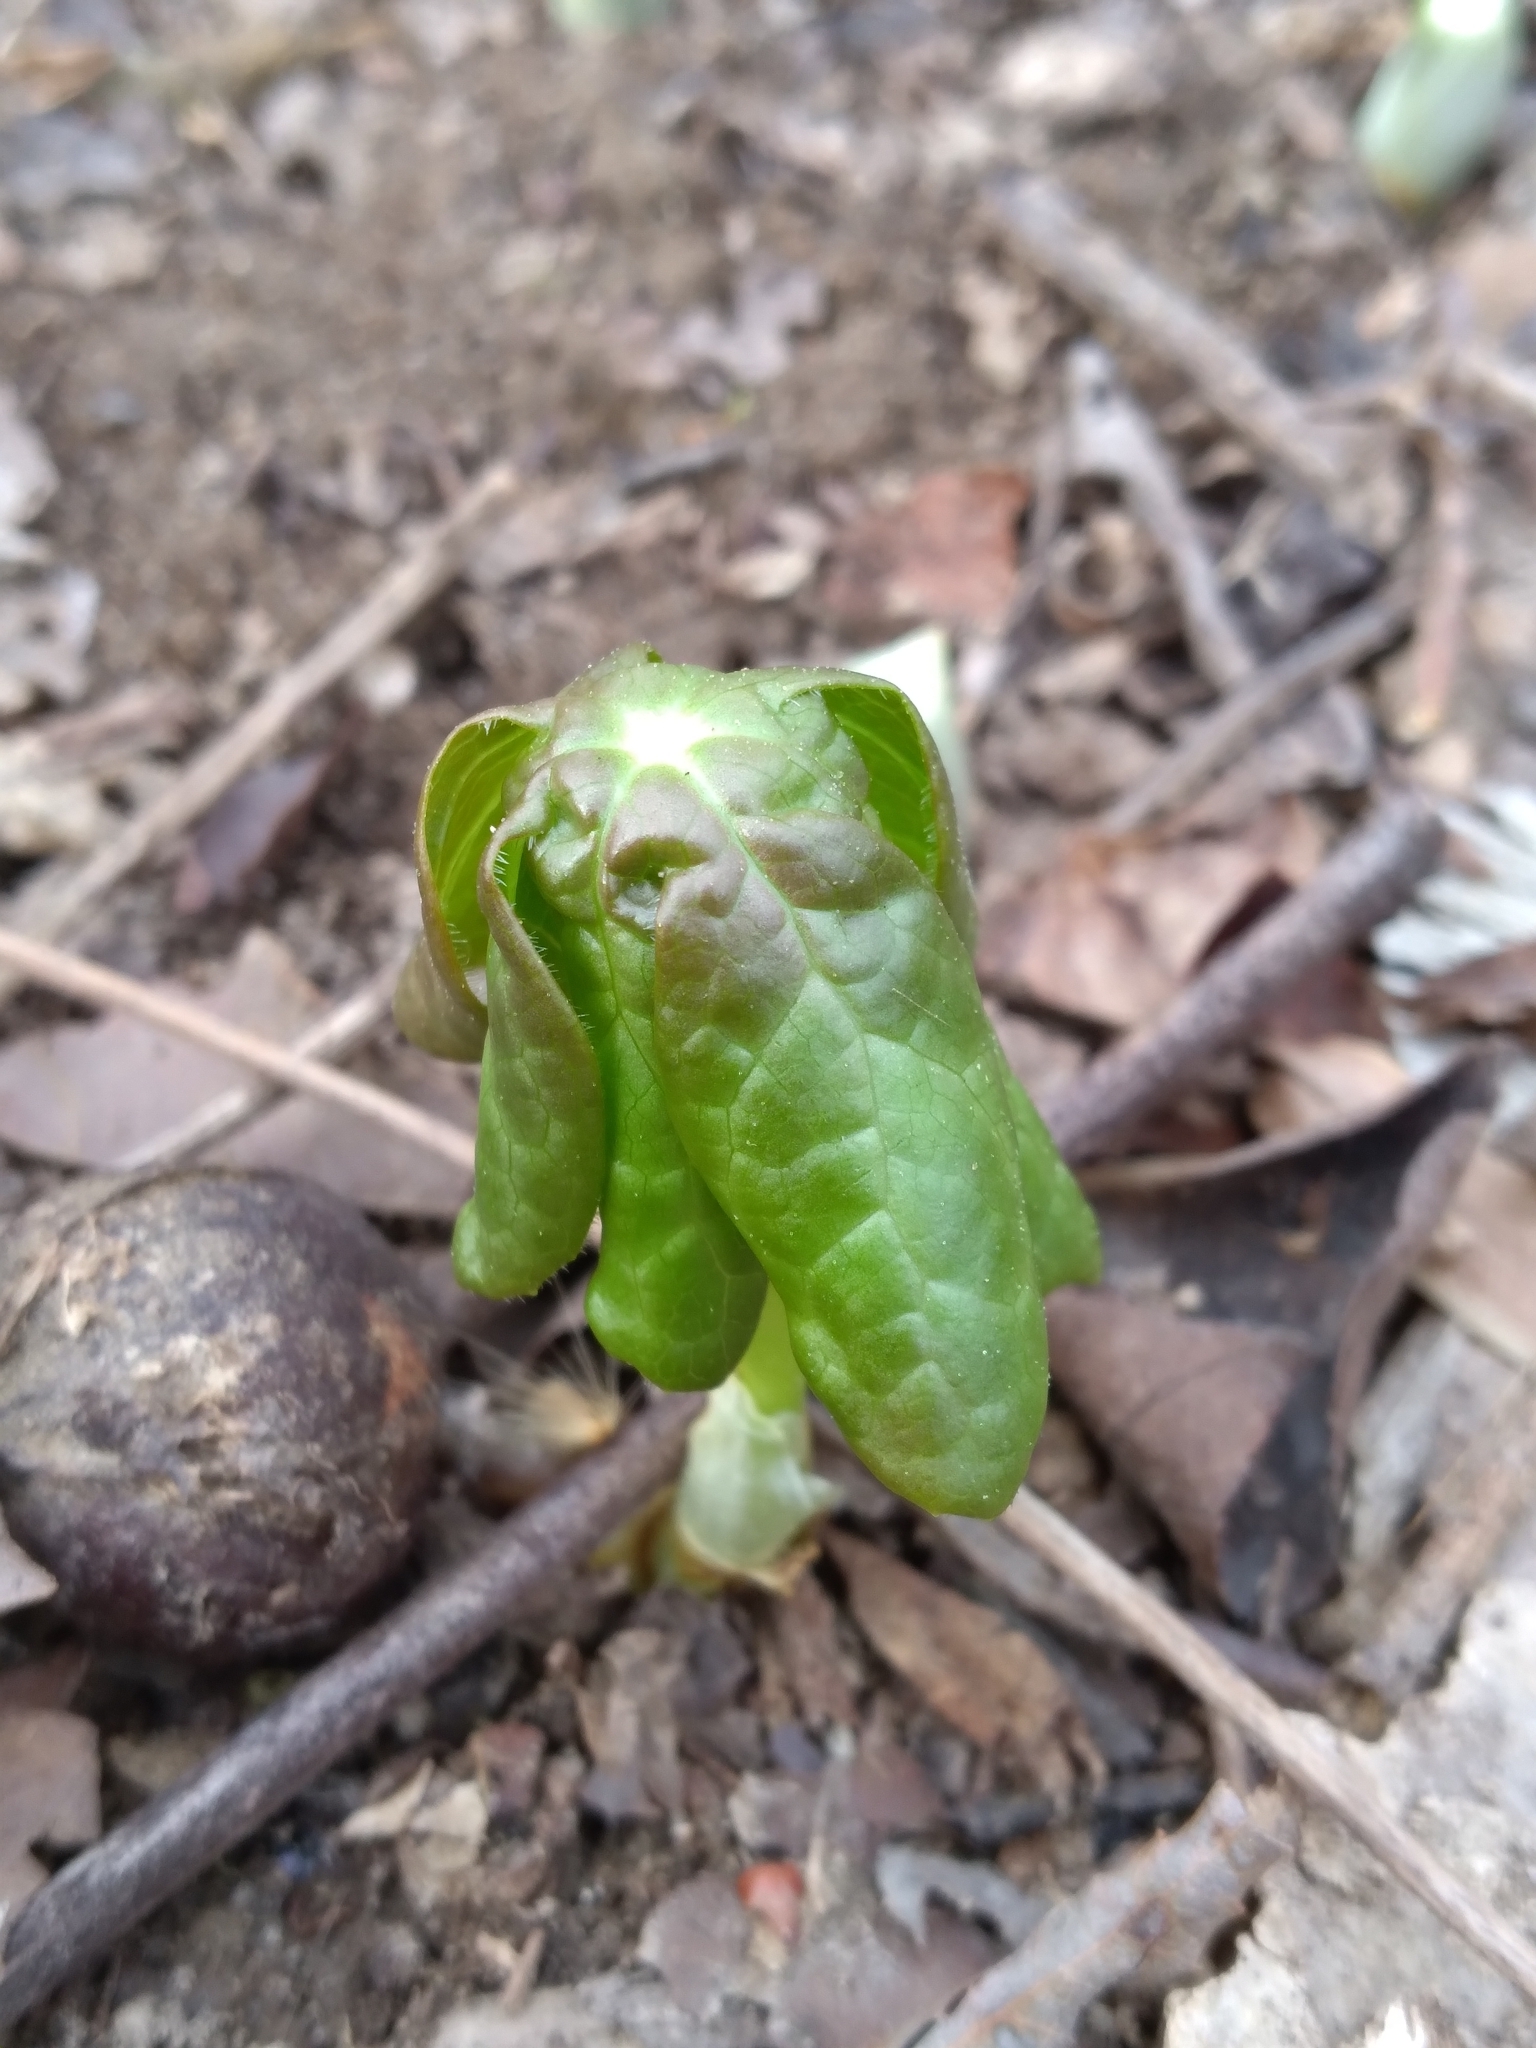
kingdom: Plantae
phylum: Tracheophyta
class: Magnoliopsida
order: Ranunculales
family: Berberidaceae
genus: Podophyllum
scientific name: Podophyllum peltatum
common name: Wild mandrake
